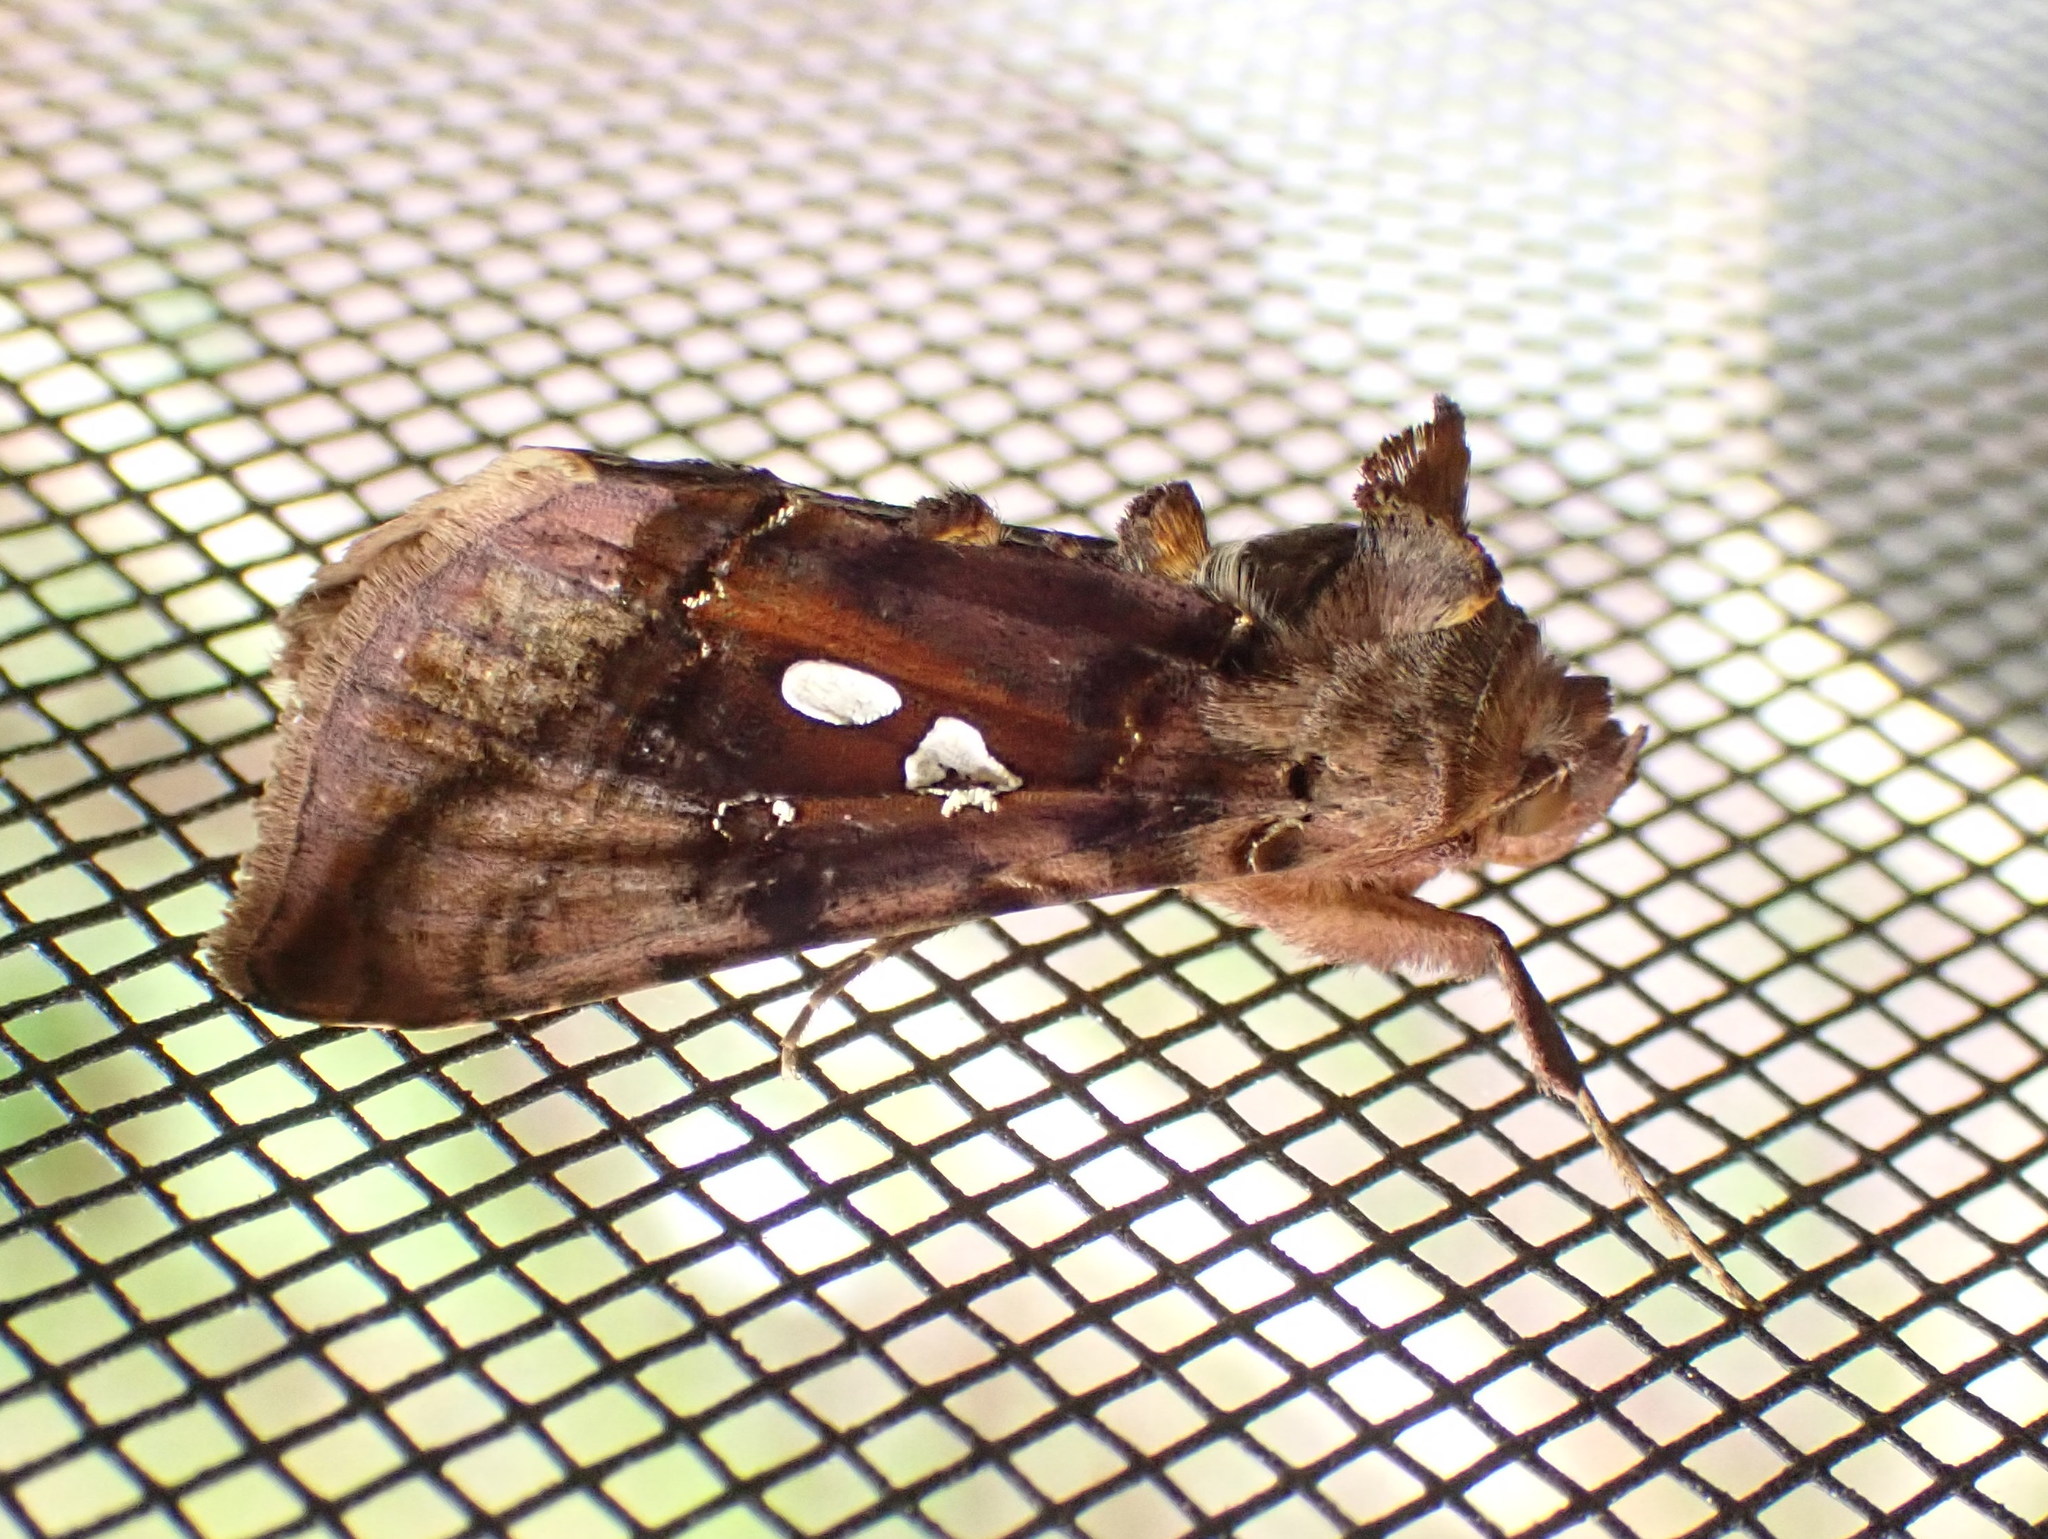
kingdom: Animalia
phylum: Arthropoda
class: Insecta
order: Lepidoptera
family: Noctuidae
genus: Autographa
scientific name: Autographa bimaculata
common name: Double-spotted spangle
